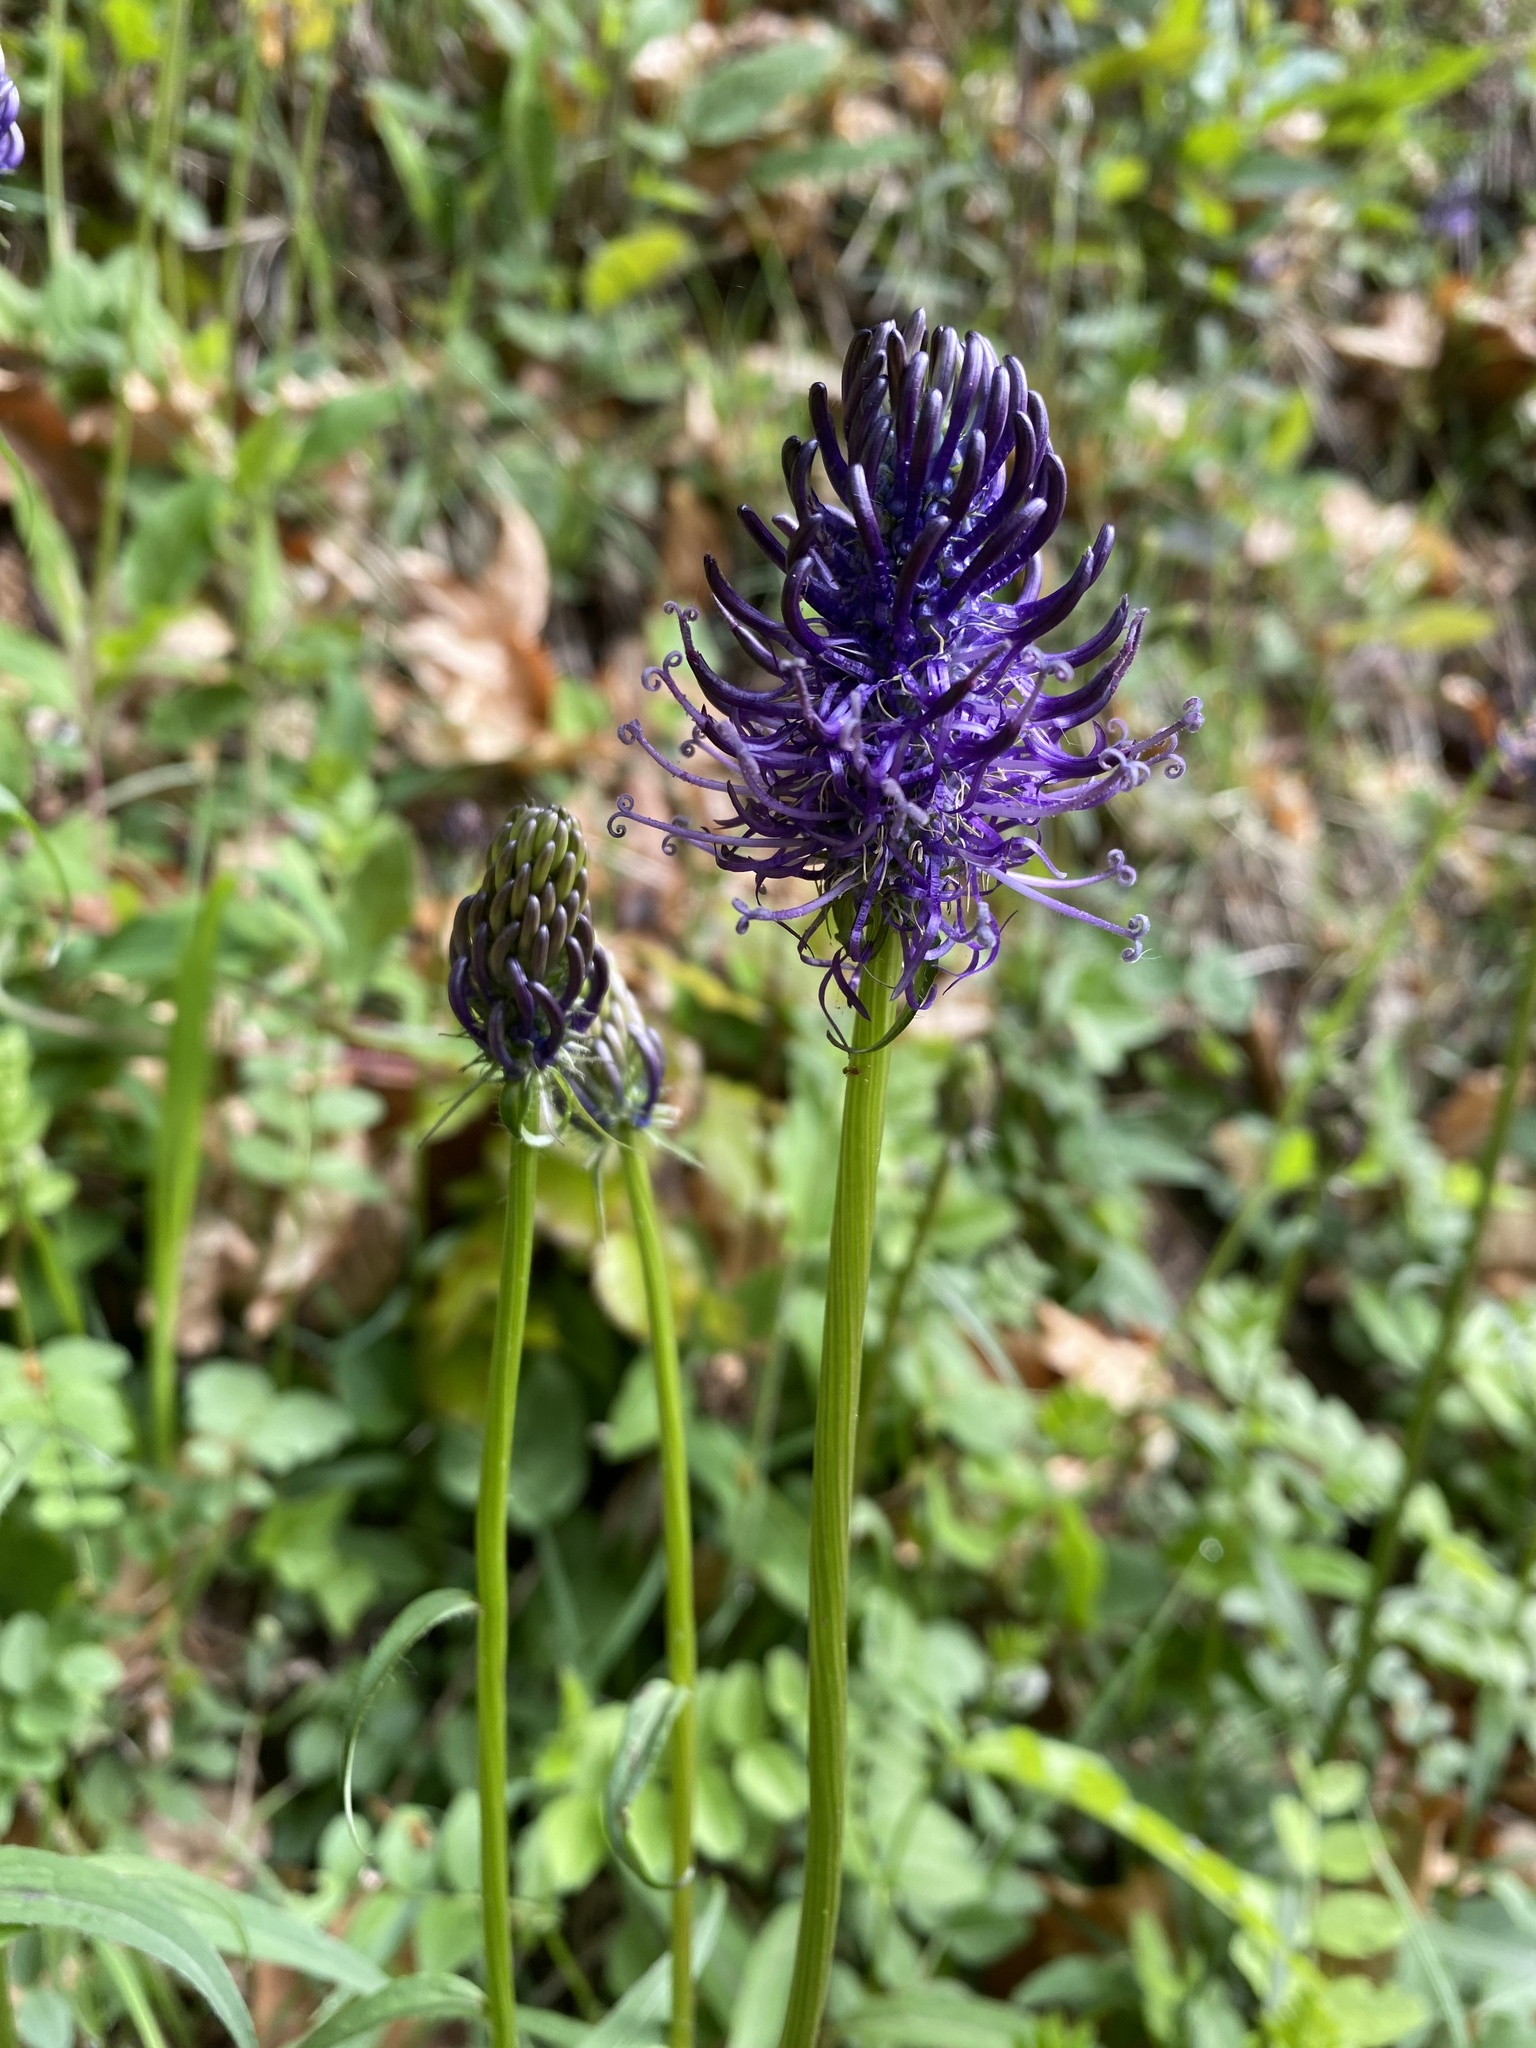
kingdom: Plantae
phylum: Tracheophyta
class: Magnoliopsida
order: Asterales
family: Campanulaceae
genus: Phyteuma
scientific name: Phyteuma nigrum
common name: Black rampion
